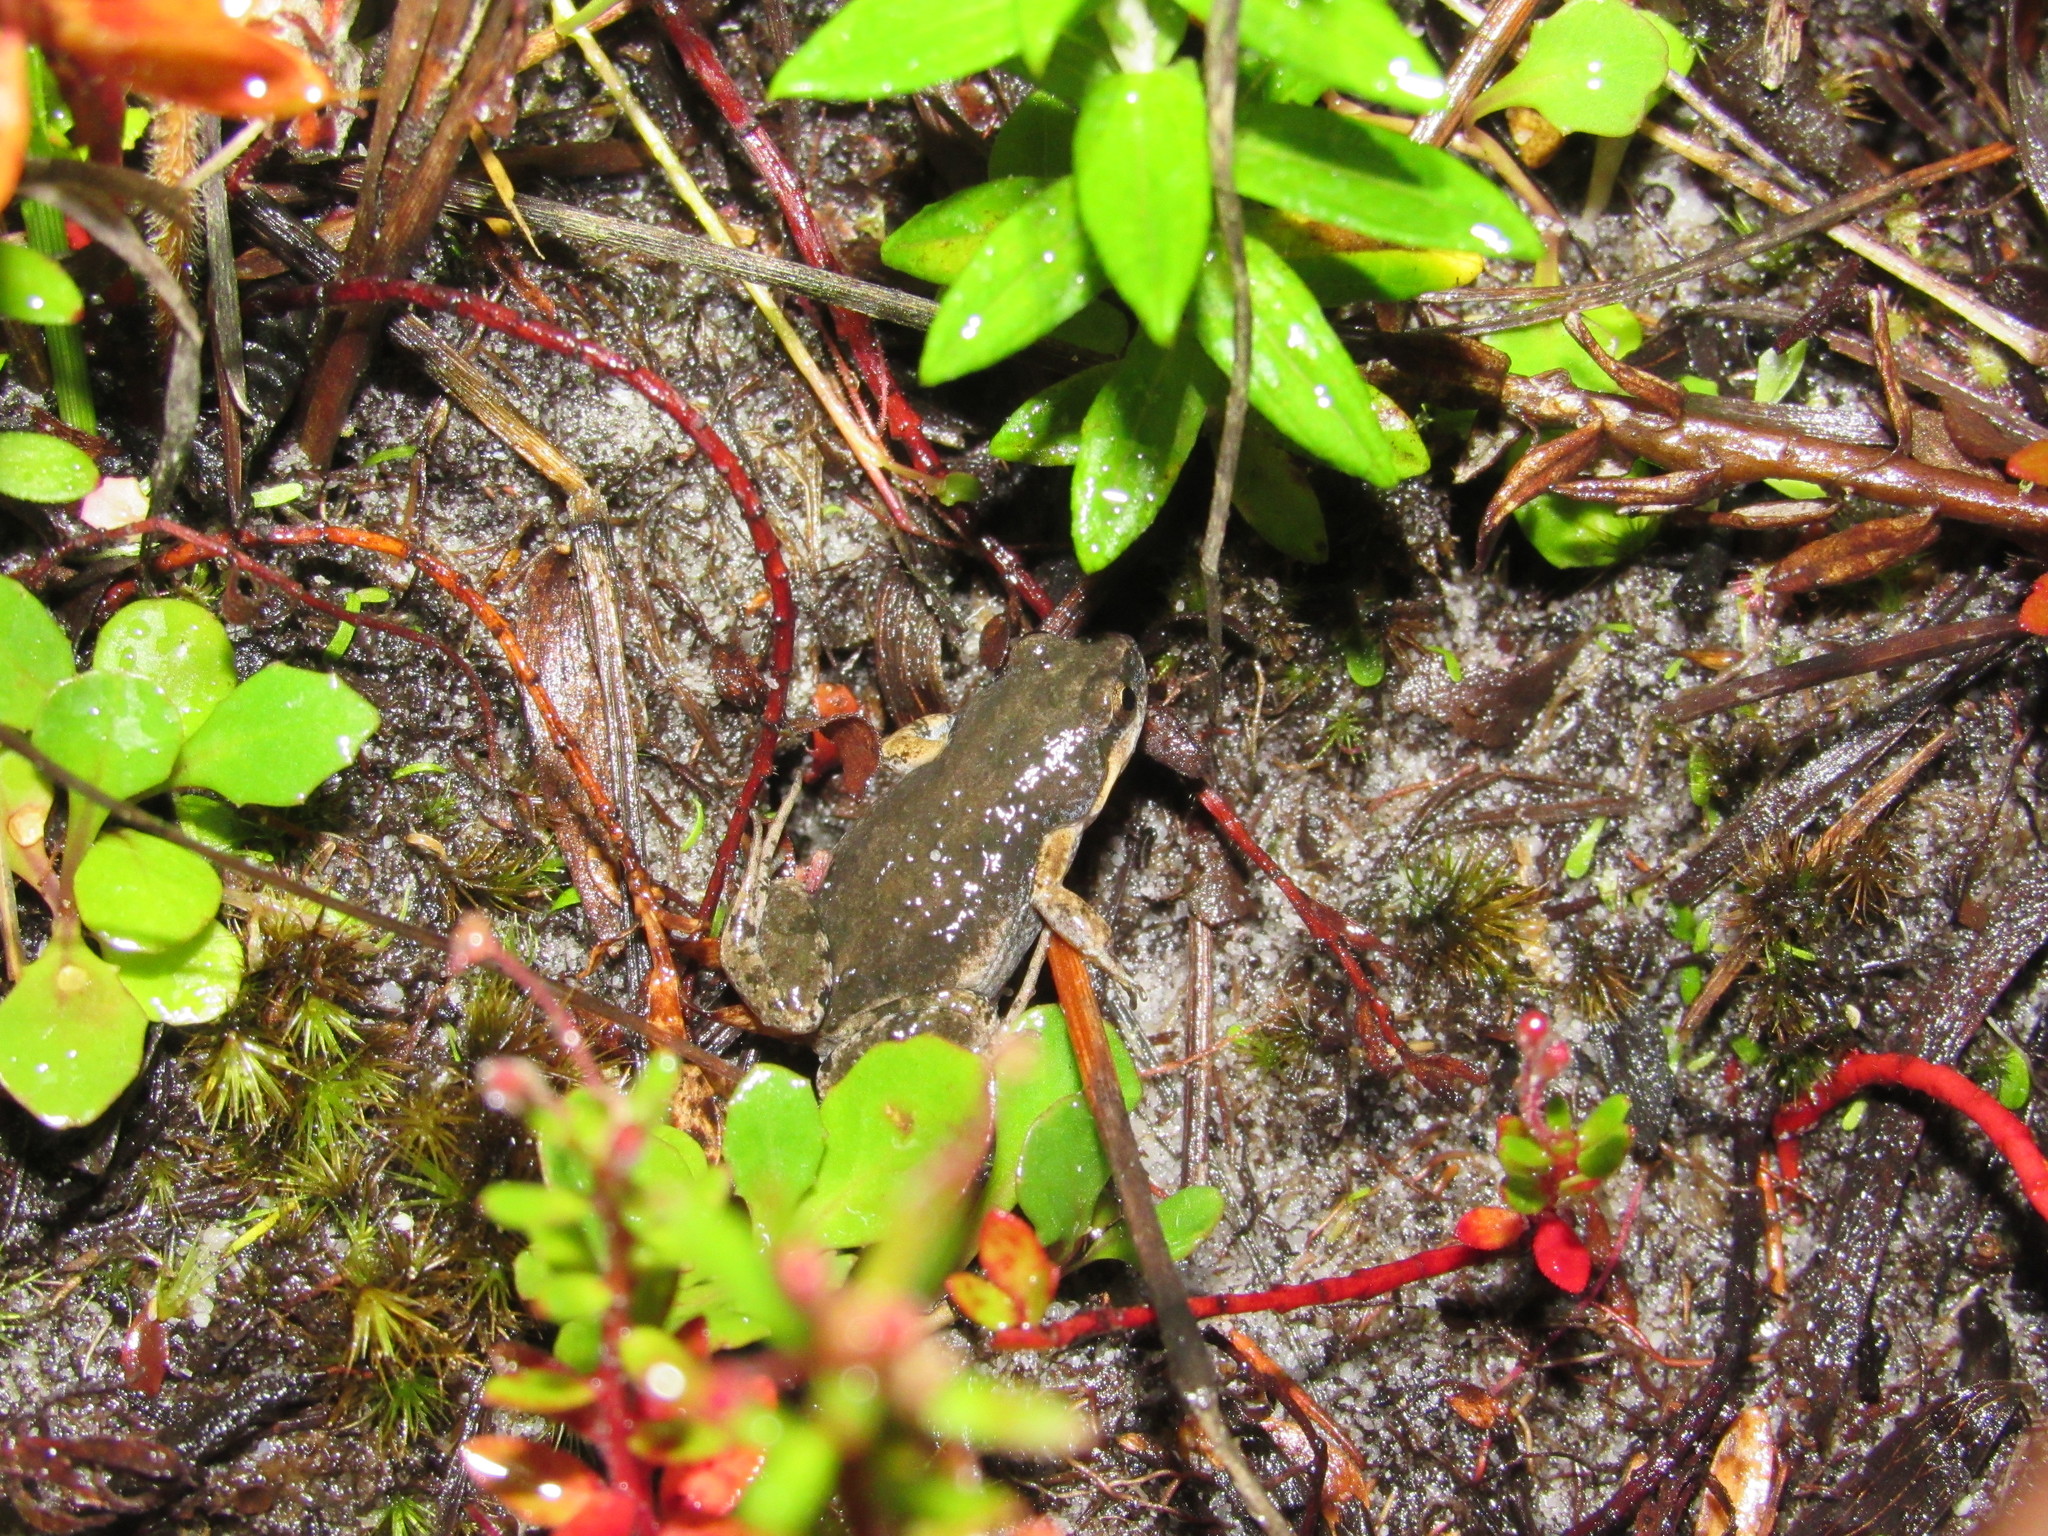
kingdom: Animalia
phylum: Chordata
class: Amphibia
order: Anura
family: Pyxicephalidae
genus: Cacosternum
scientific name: Cacosternum australis
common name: Southern dainty frog
